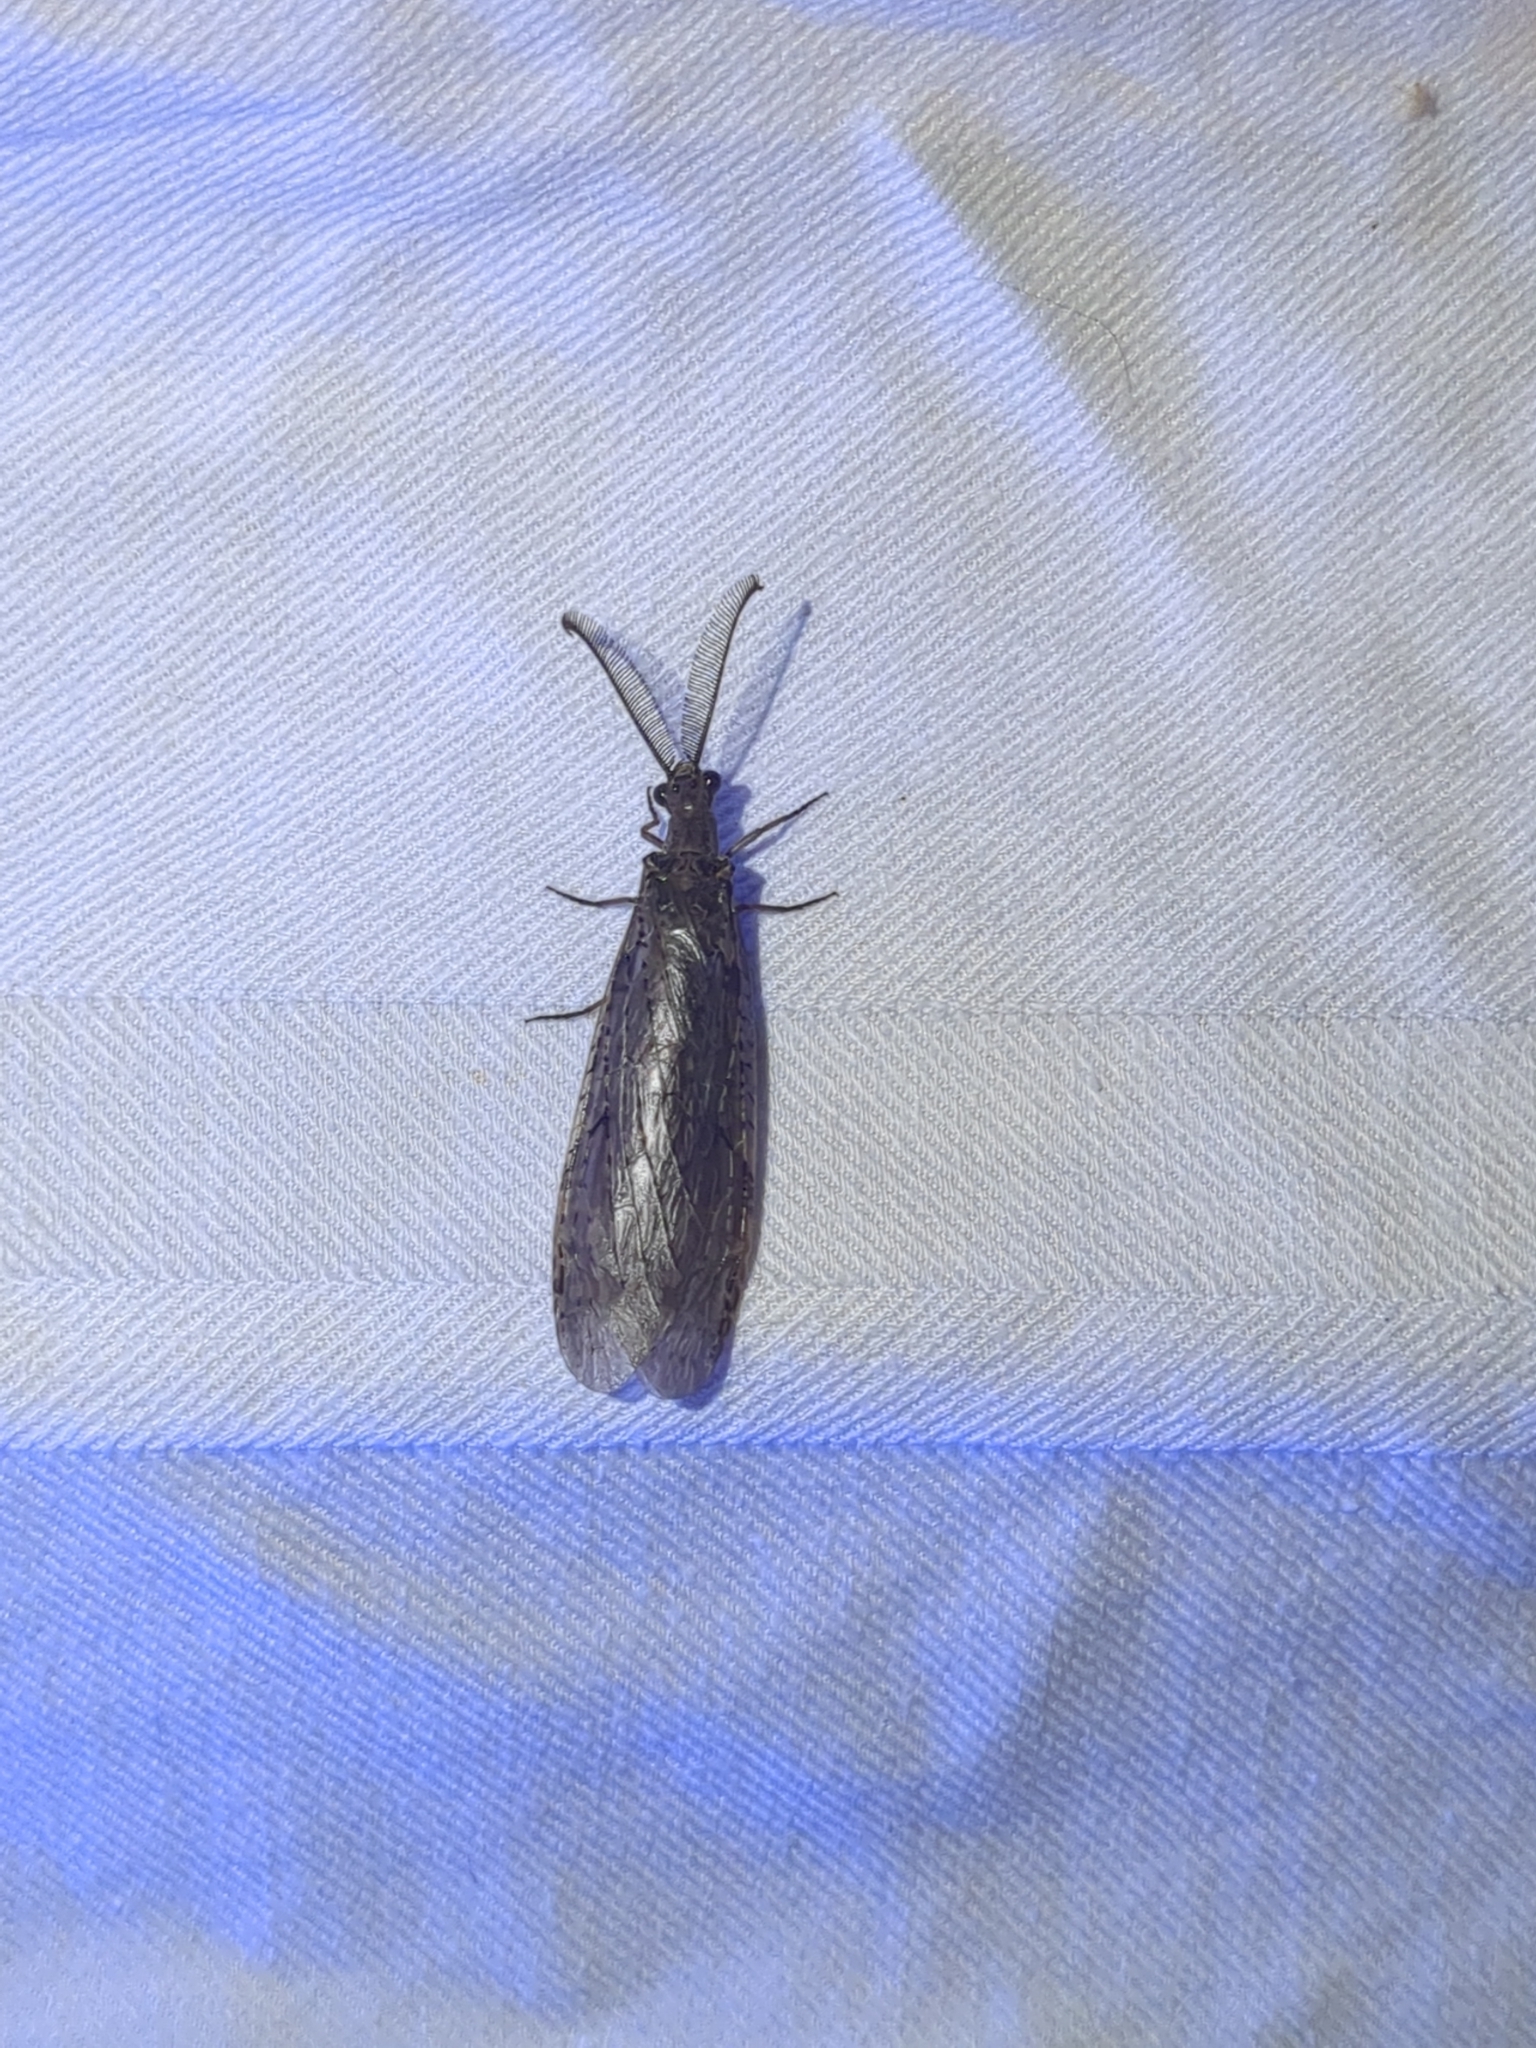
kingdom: Animalia
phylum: Arthropoda
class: Insecta
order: Megaloptera
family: Corydalidae
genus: Chauliodes
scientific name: Chauliodes rastricornis
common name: Spring fishfly
